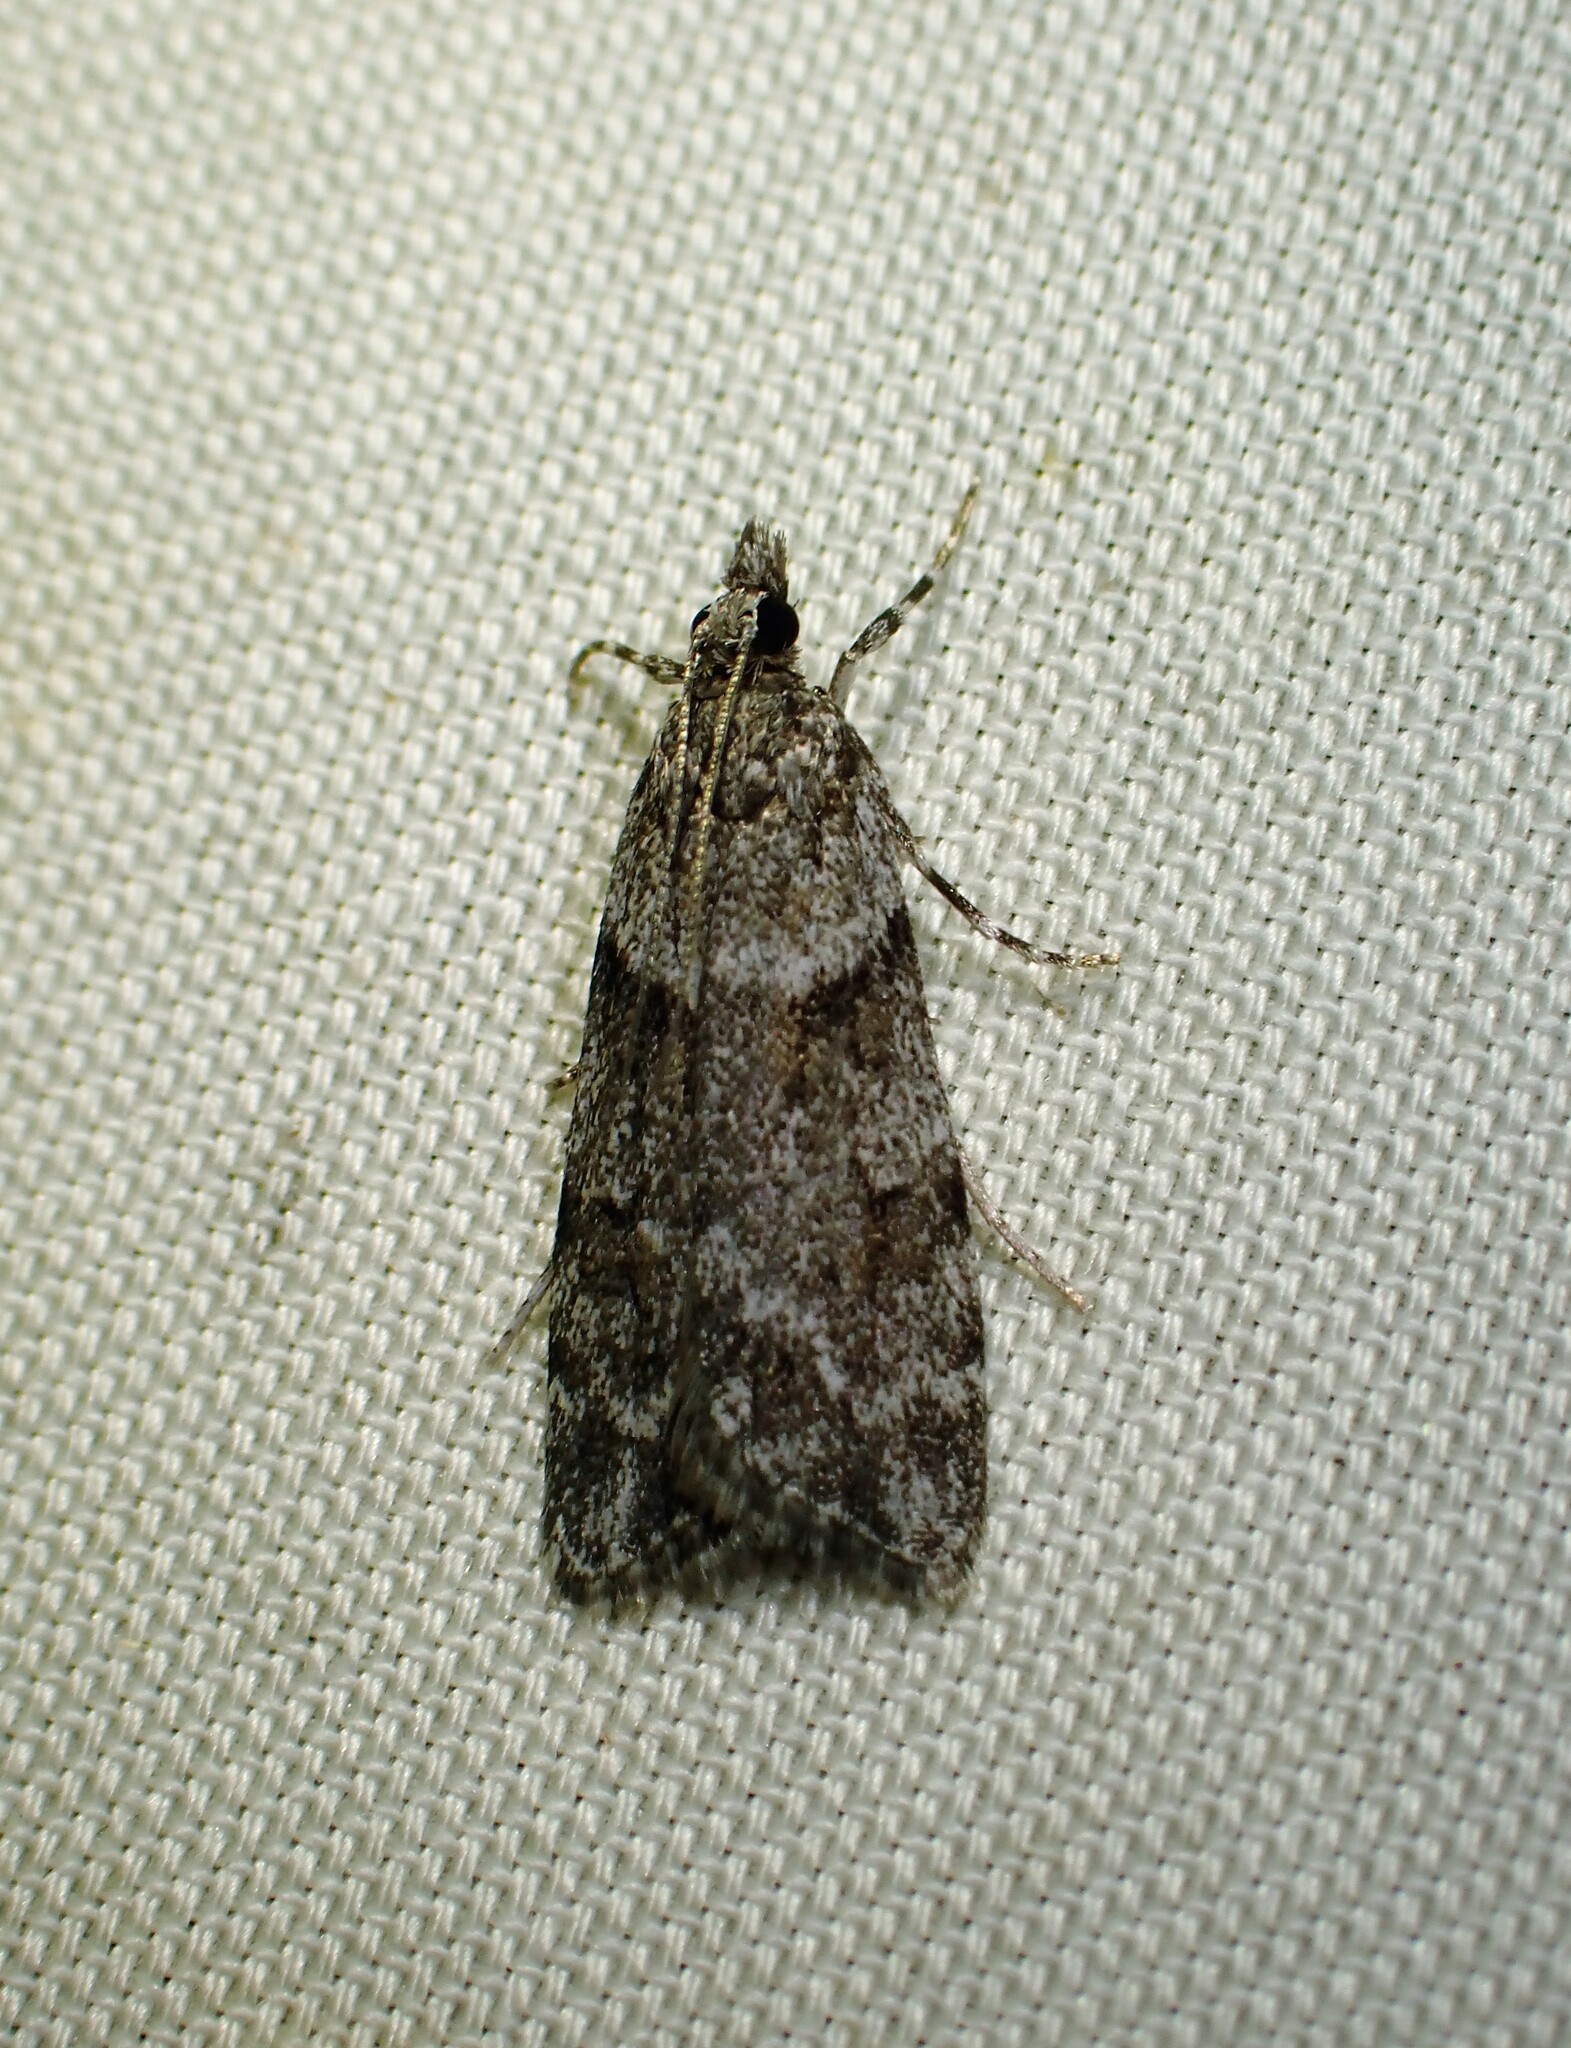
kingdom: Animalia
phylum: Arthropoda
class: Insecta
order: Lepidoptera
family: Crambidae
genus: Scoparia
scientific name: Scoparia biplagialis
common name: Double-striped scoparia moth
